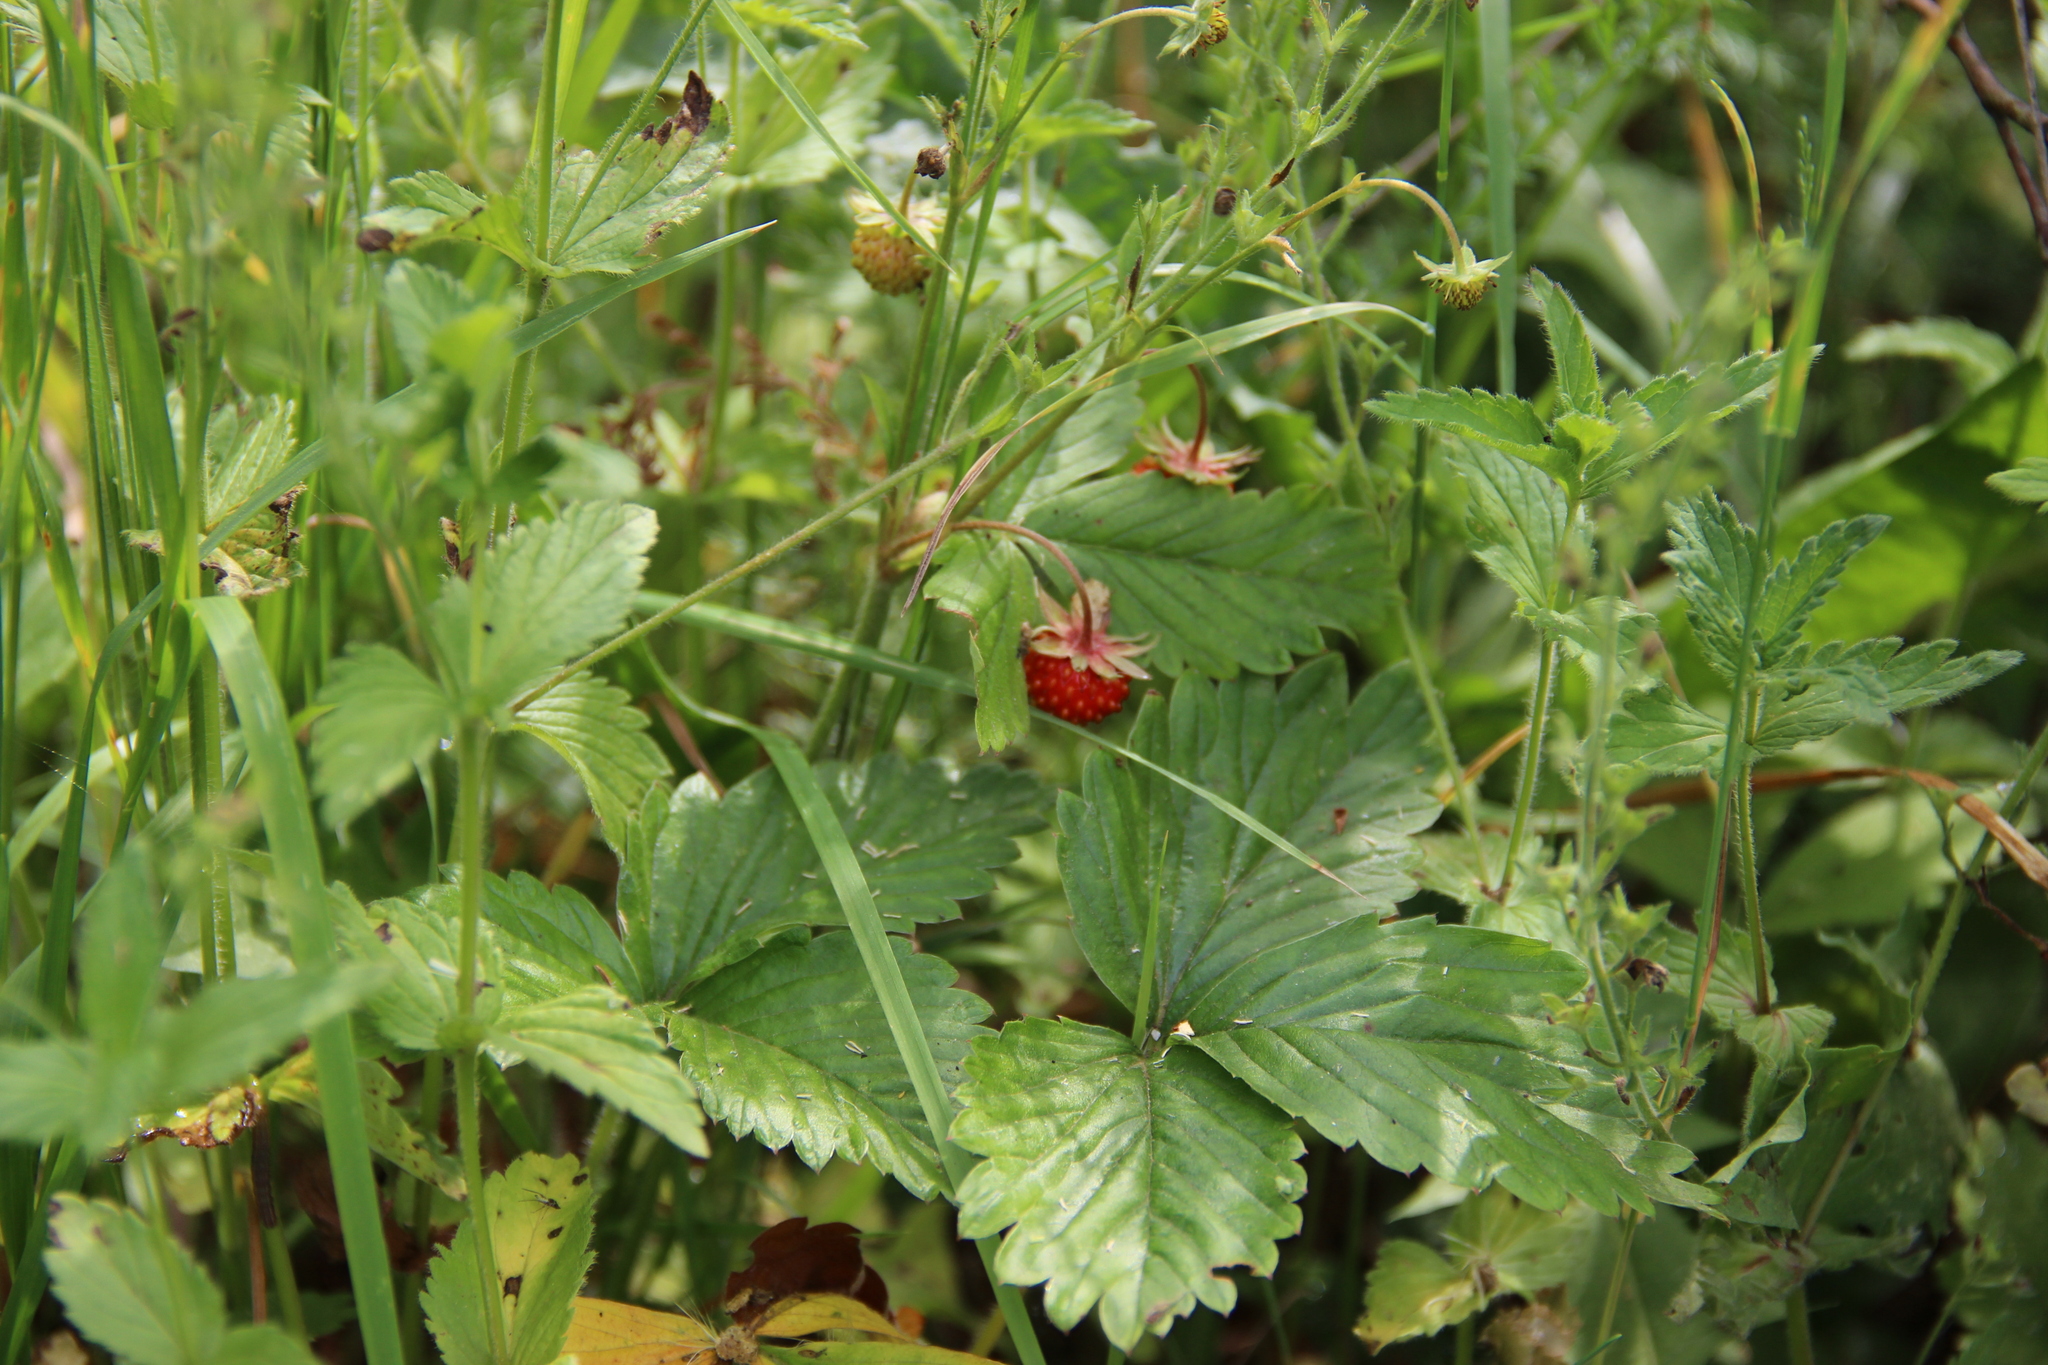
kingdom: Plantae
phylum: Tracheophyta
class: Magnoliopsida
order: Rosales
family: Rosaceae
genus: Fragaria
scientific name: Fragaria vesca
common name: Wild strawberry
